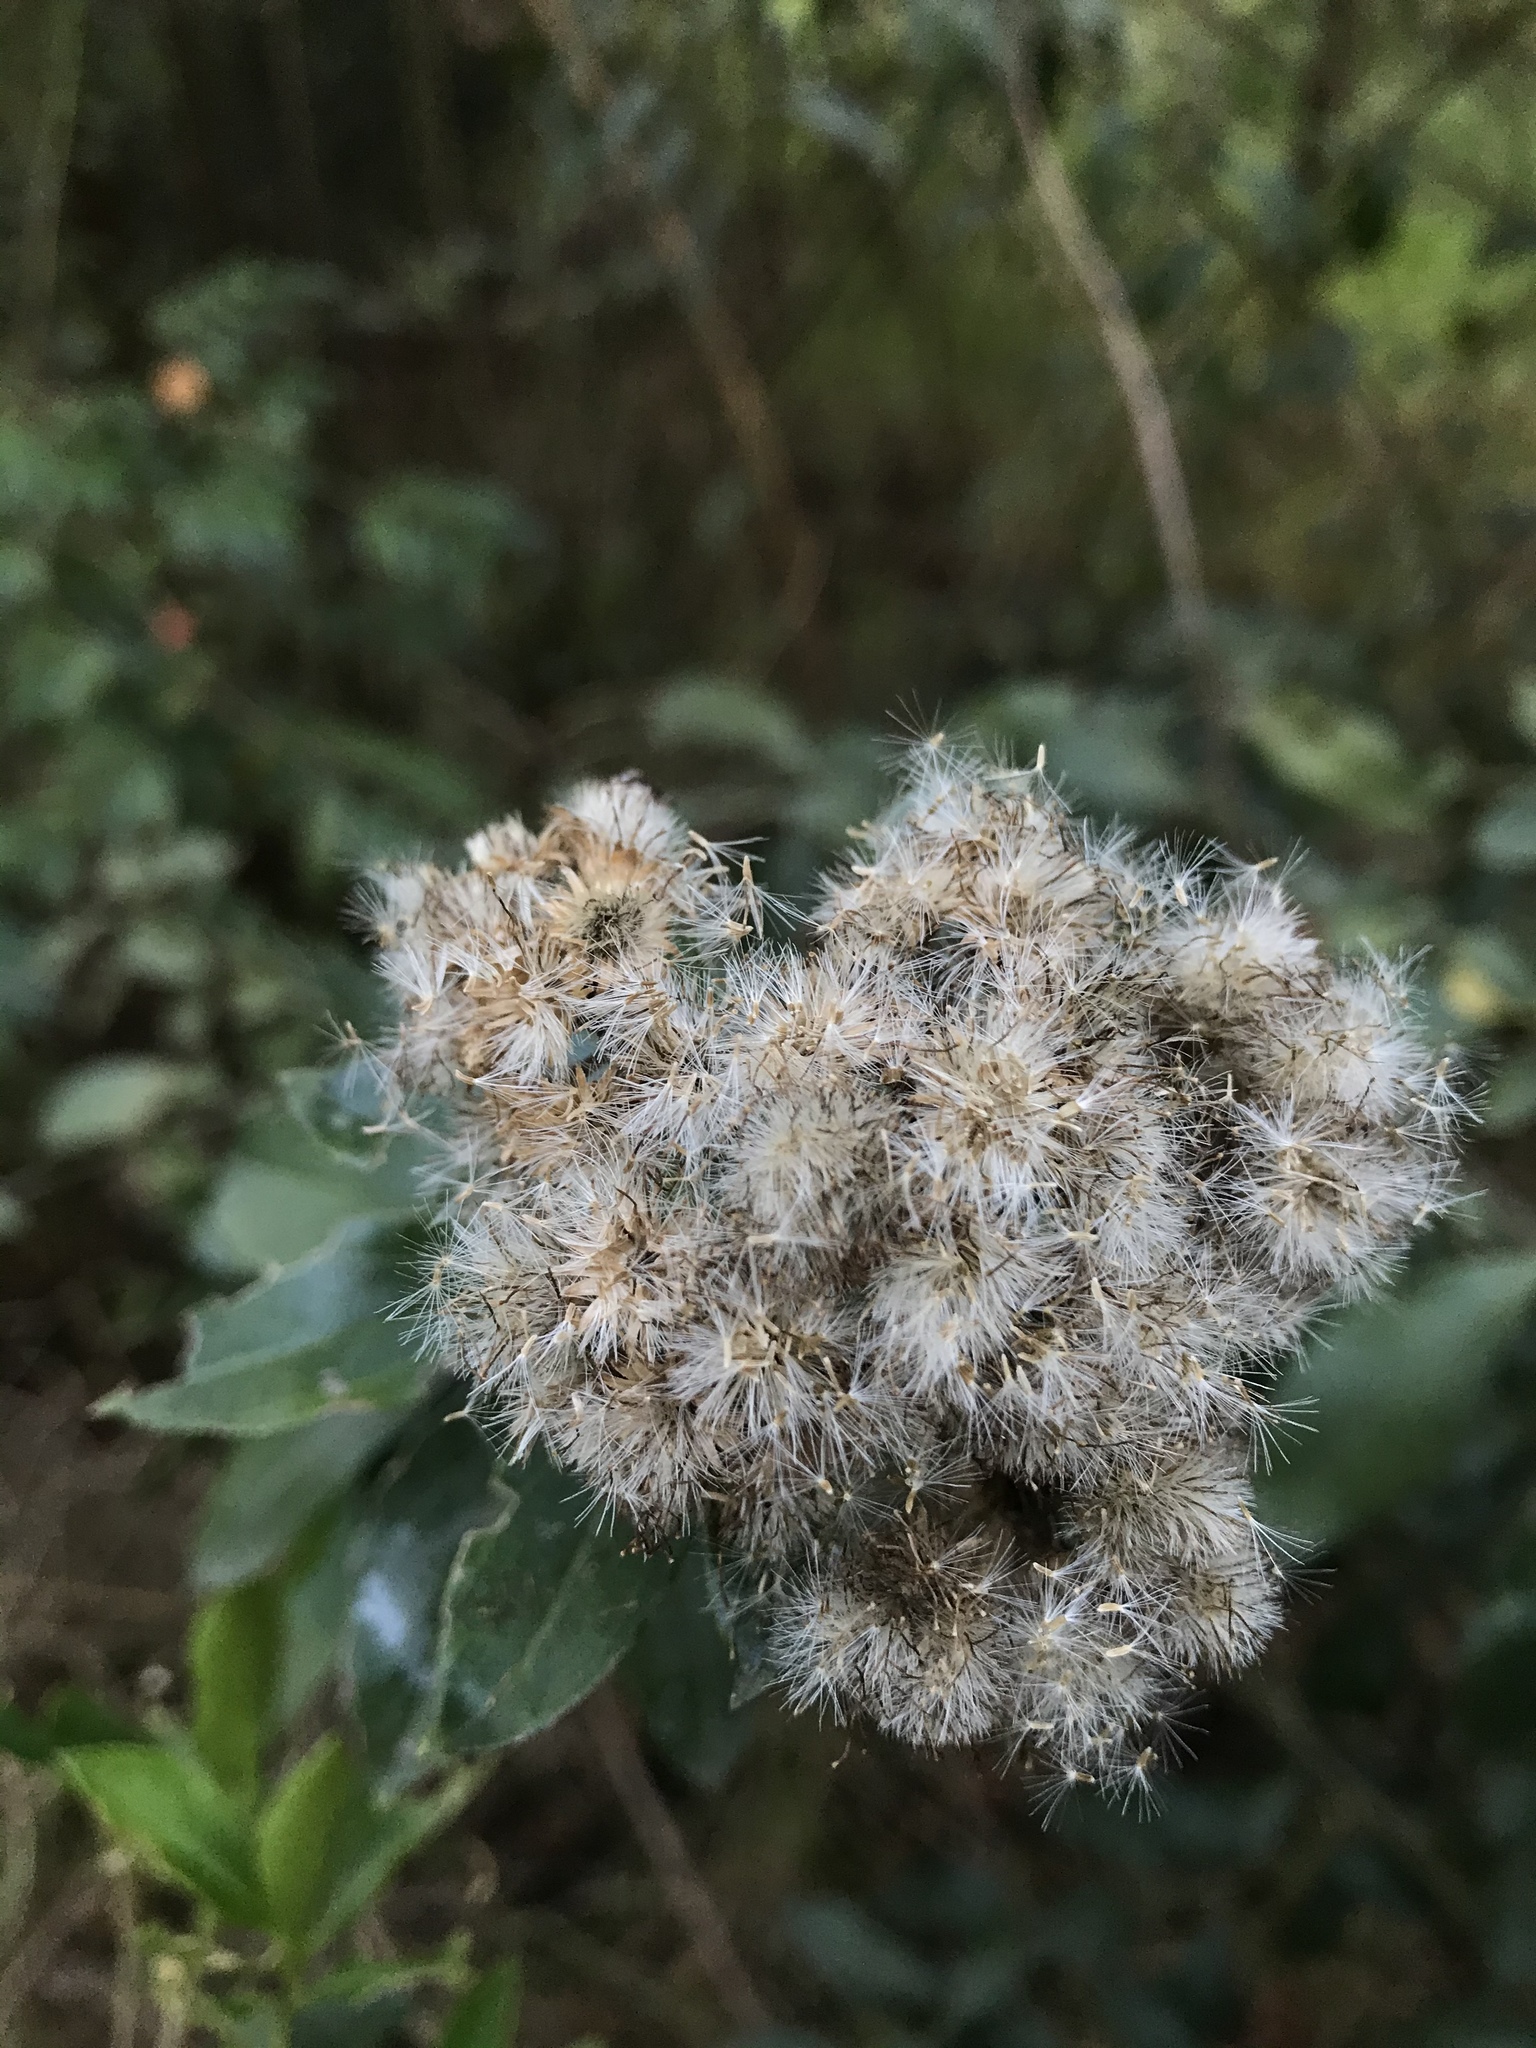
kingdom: Plantae
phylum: Tracheophyta
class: Magnoliopsida
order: Asterales
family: Asteraceae
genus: Baccharis
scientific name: Baccharis prunifolia
